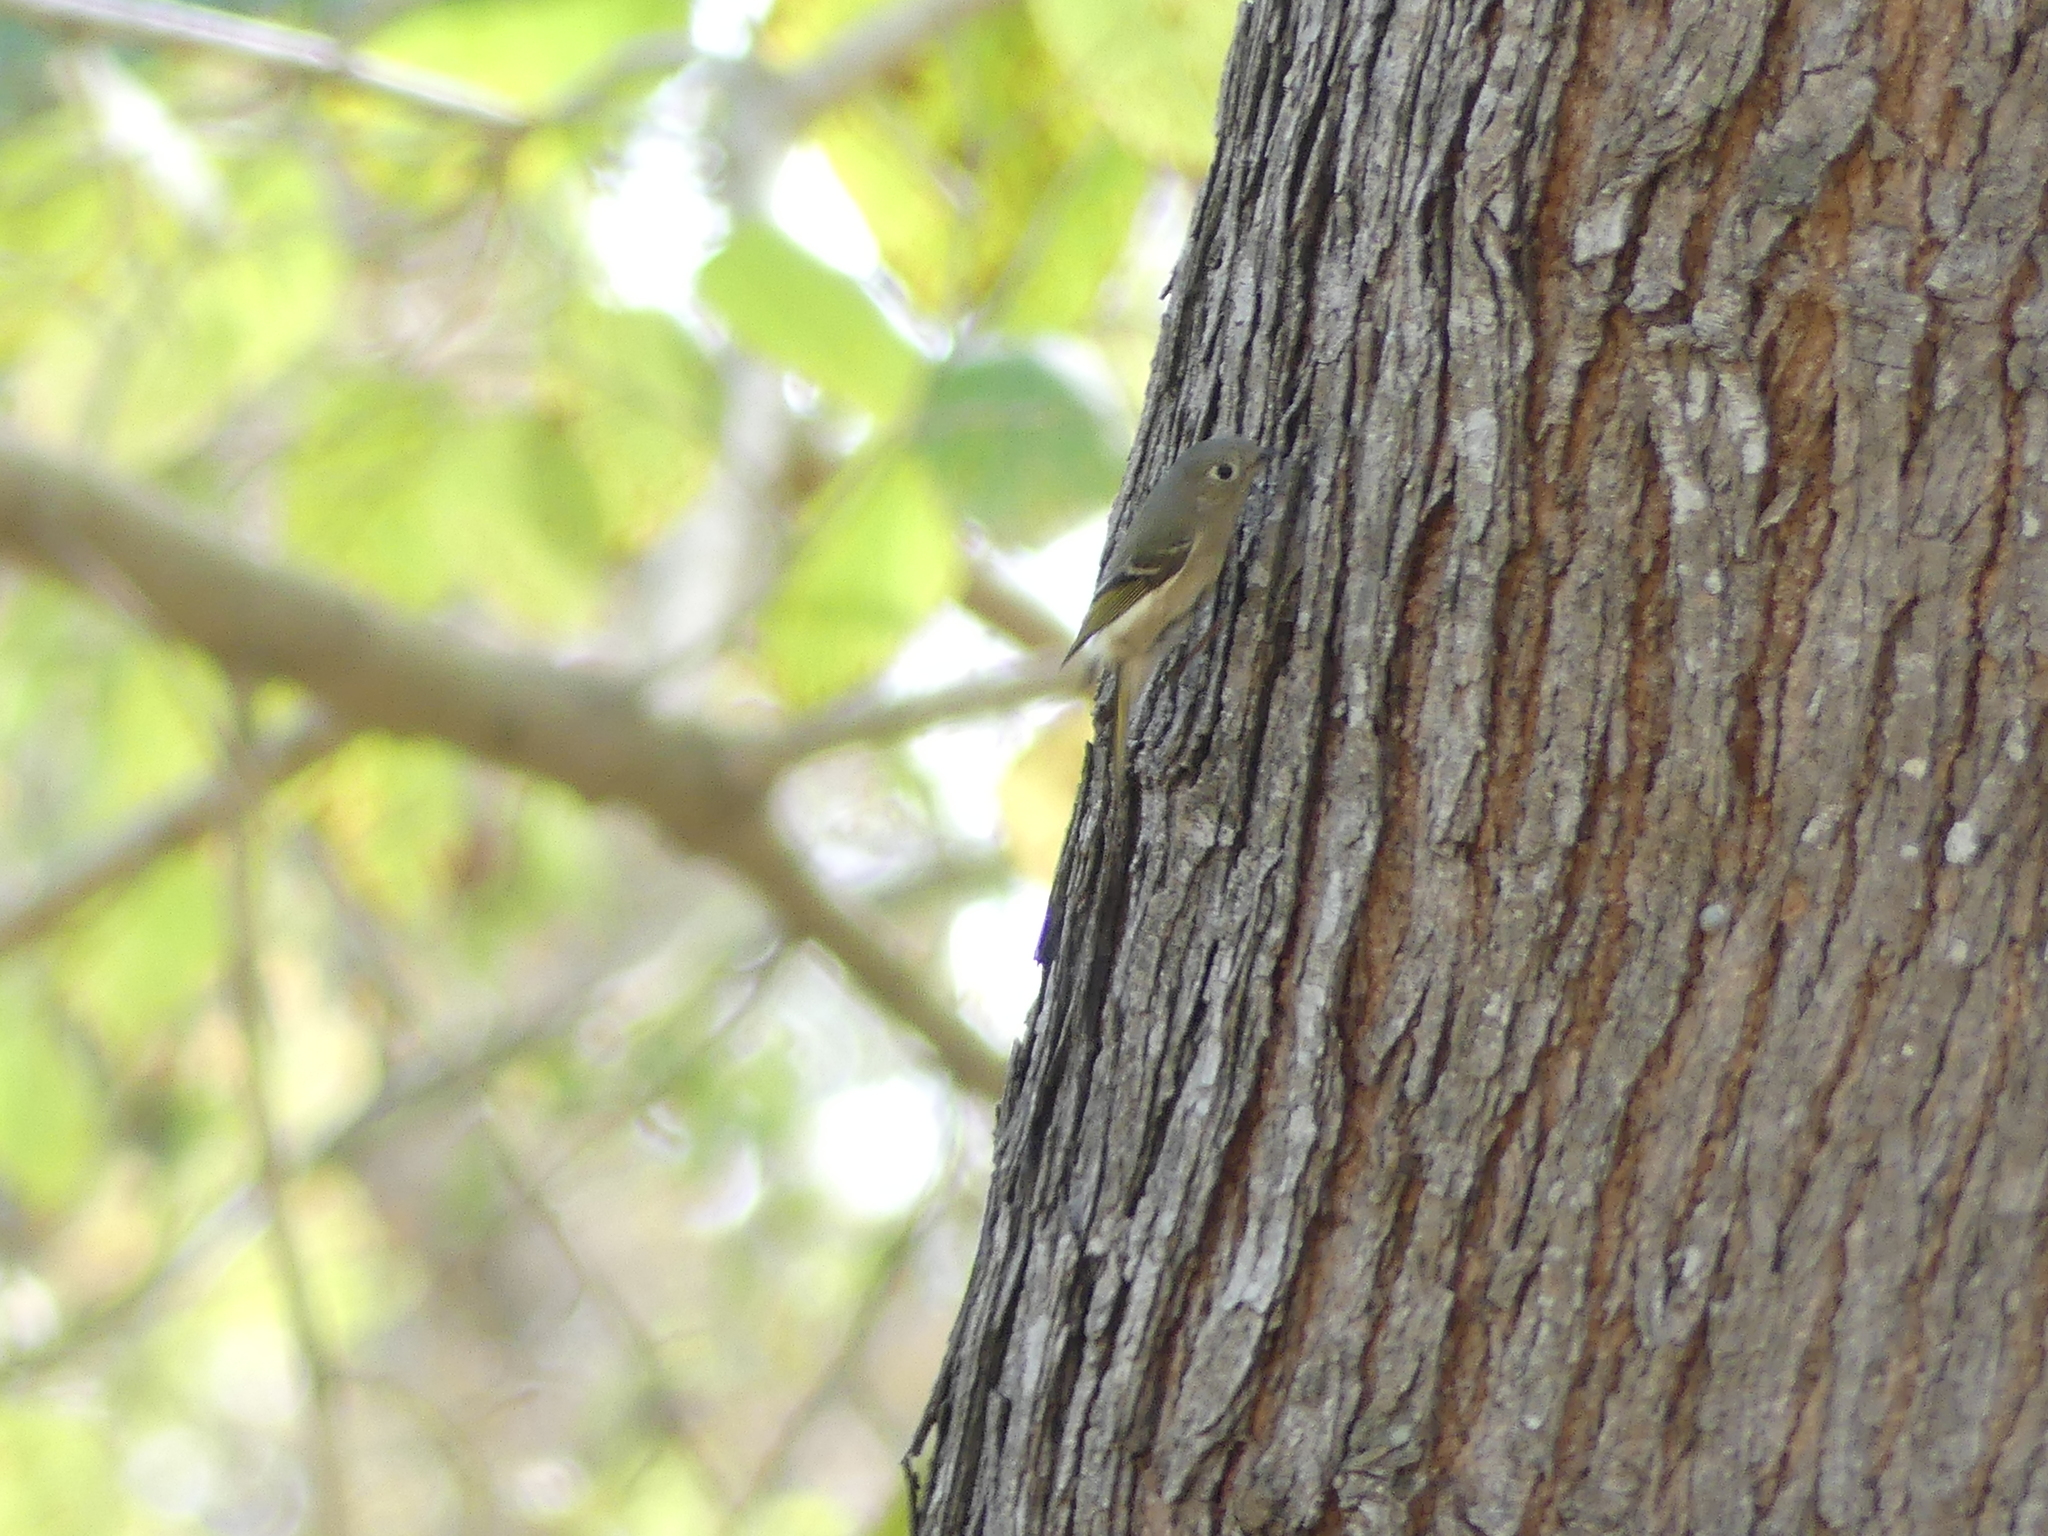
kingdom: Animalia
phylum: Chordata
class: Aves
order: Passeriformes
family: Regulidae
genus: Regulus
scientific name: Regulus calendula
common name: Ruby-crowned kinglet
